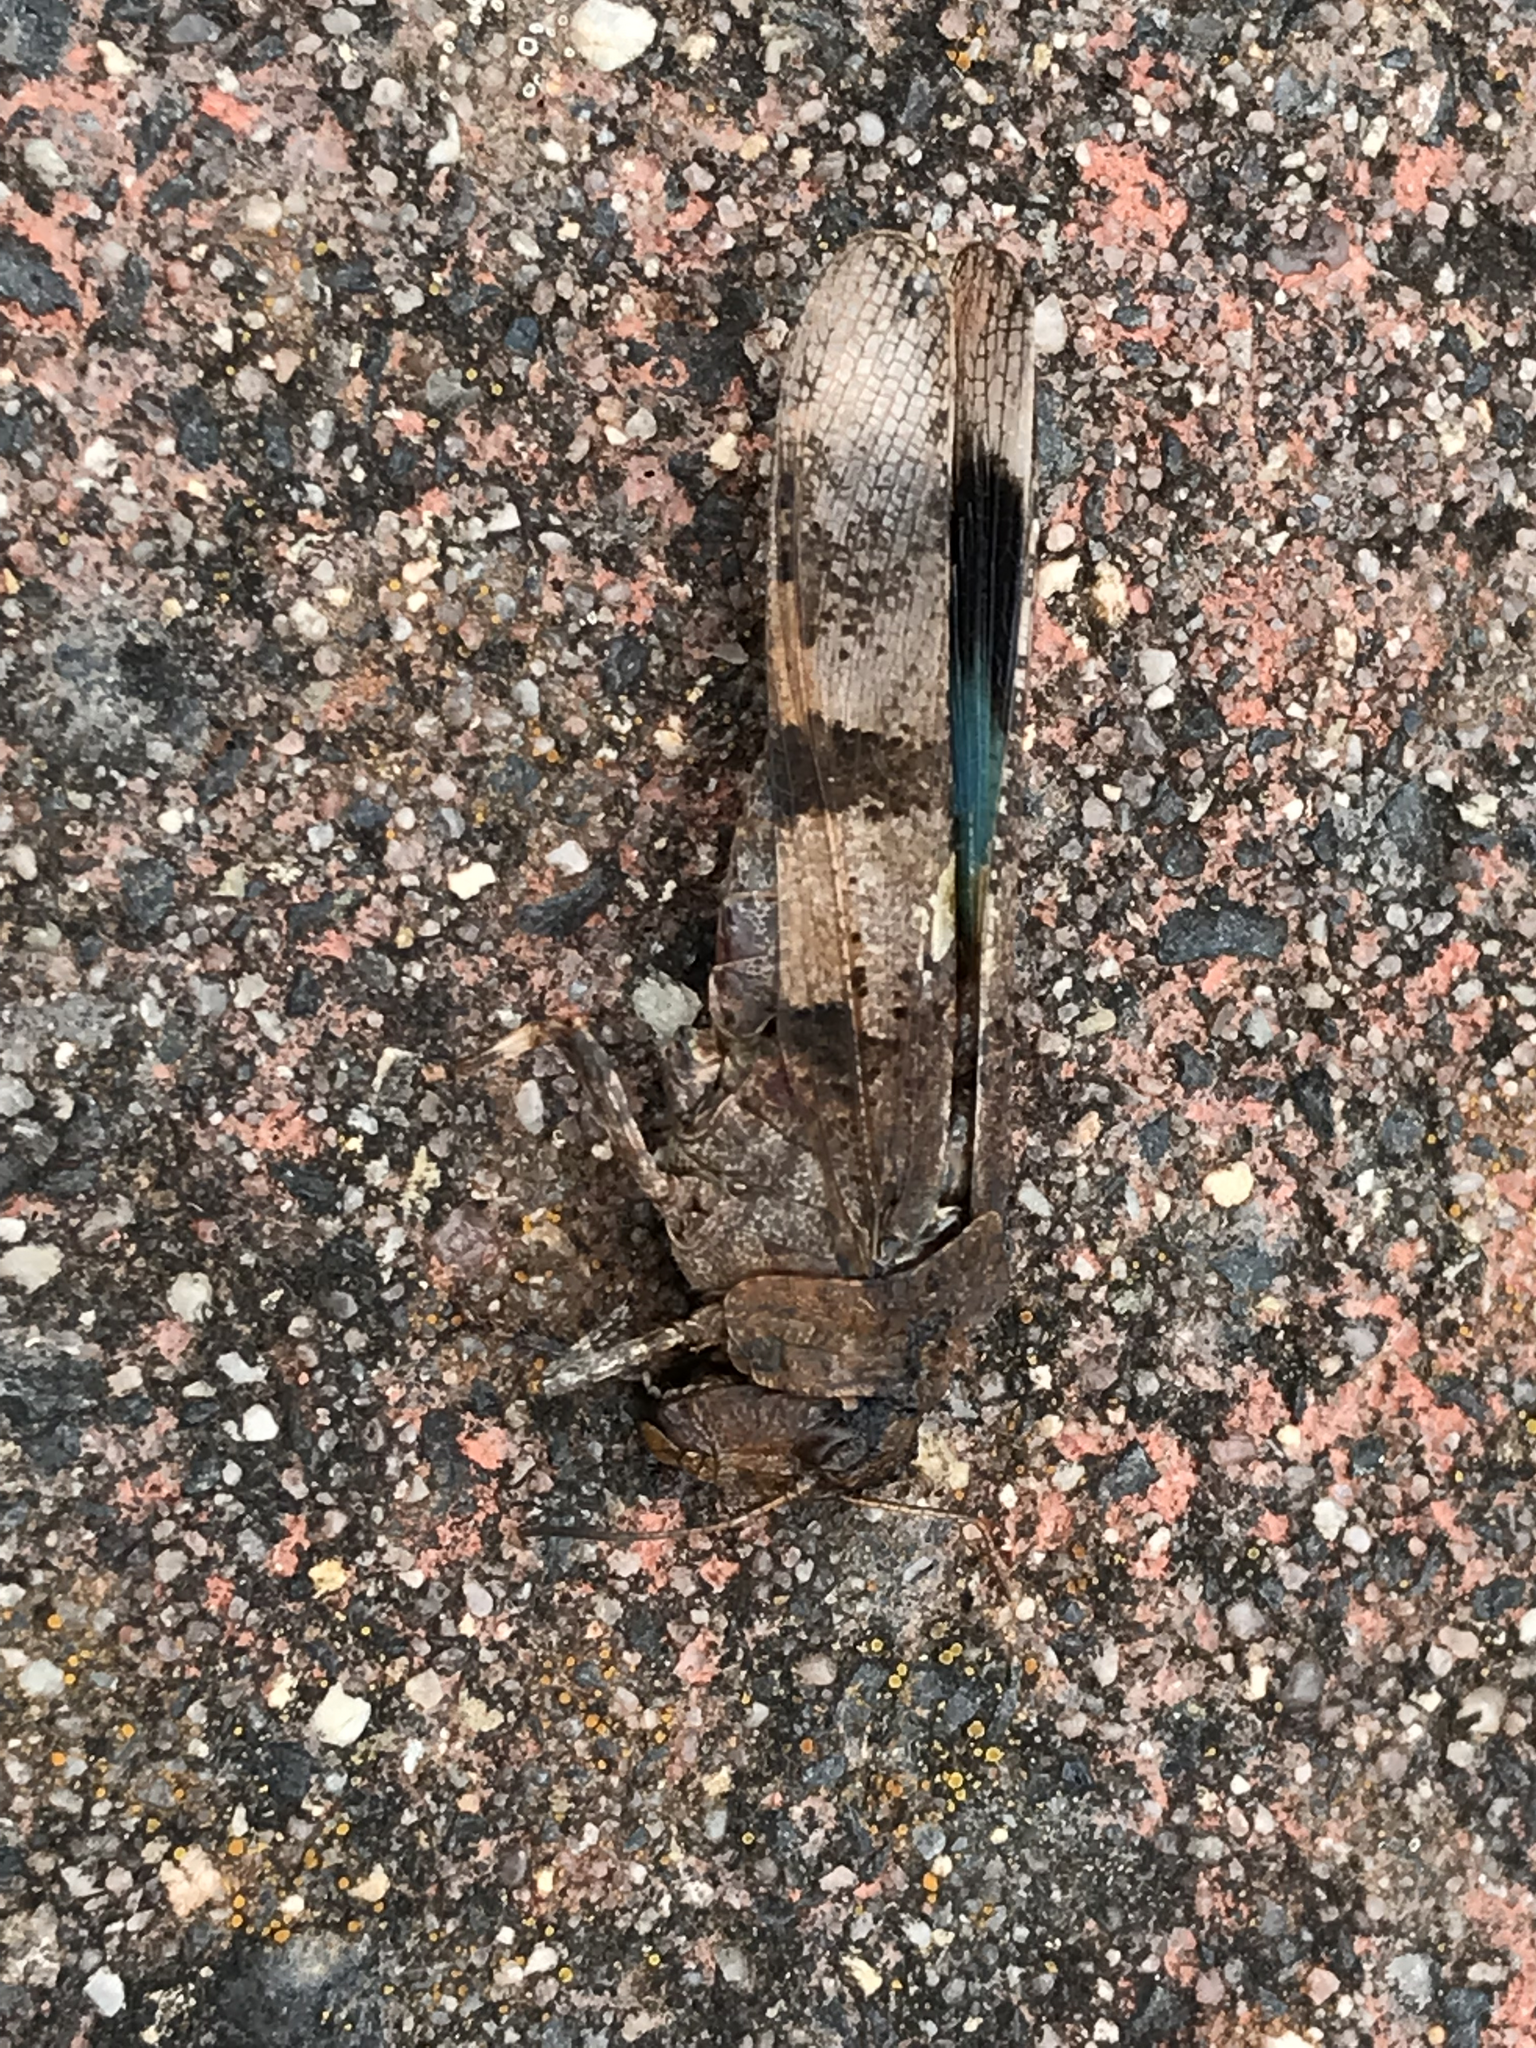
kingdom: Animalia
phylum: Arthropoda
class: Insecta
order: Orthoptera
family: Acrididae
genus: Oedipoda
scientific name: Oedipoda caerulescens
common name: Blue-winged grasshopper
